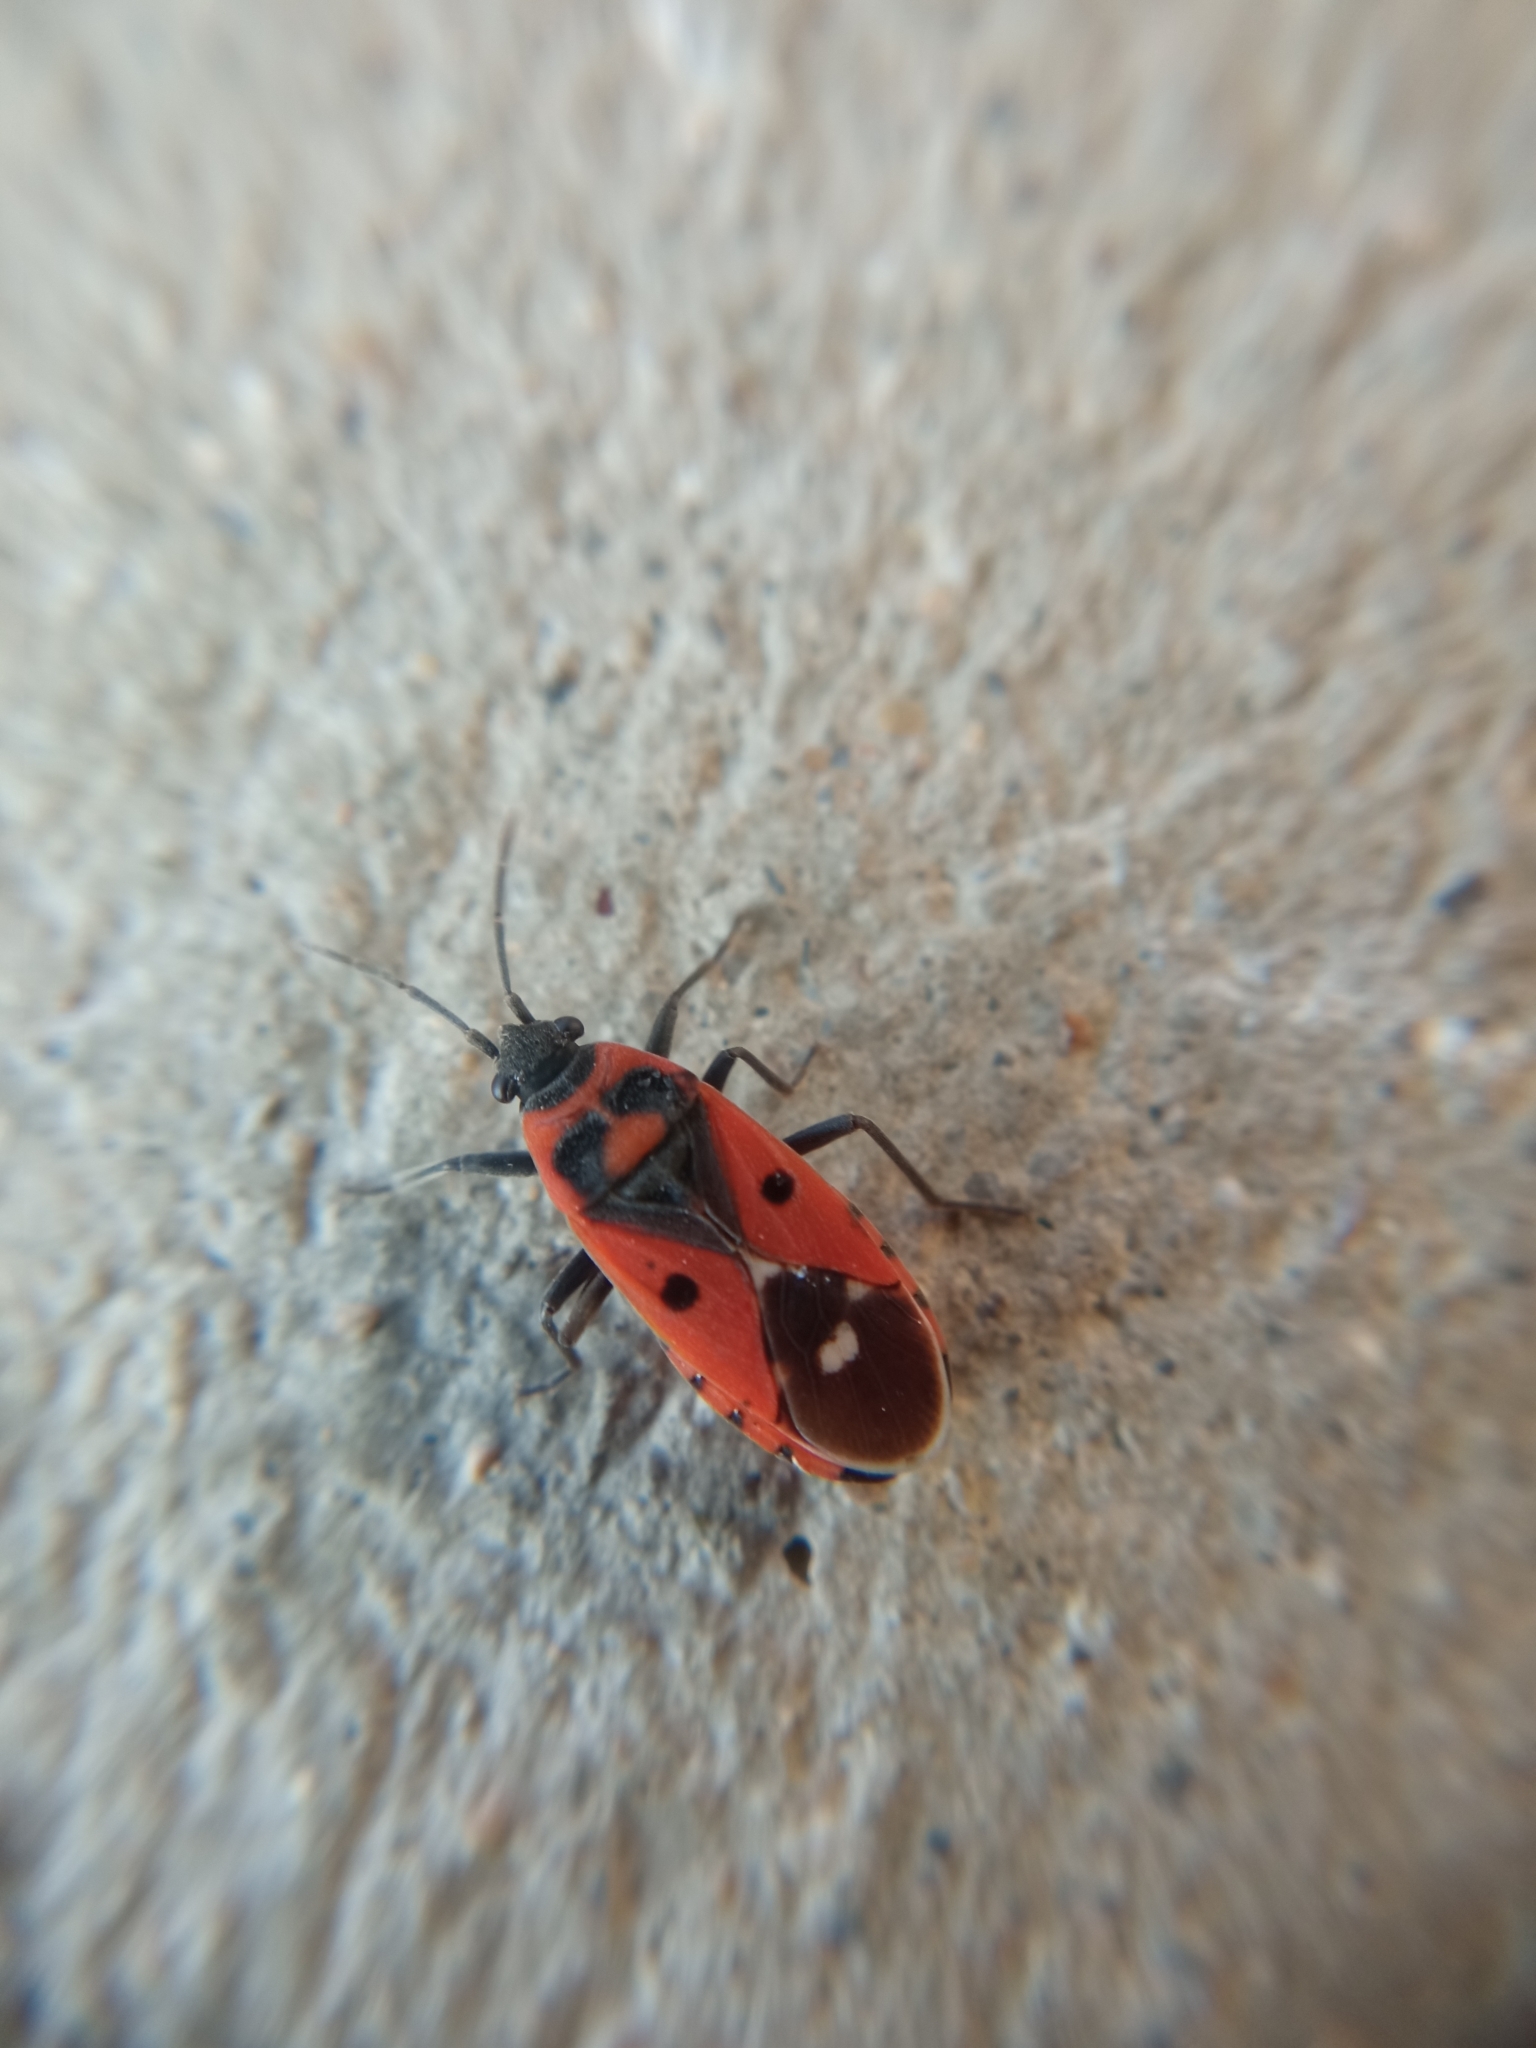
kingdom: Animalia
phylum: Arthropoda
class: Insecta
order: Hemiptera
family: Lygaeidae
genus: Melanocoryphus
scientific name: Melanocoryphus albomaculatus
